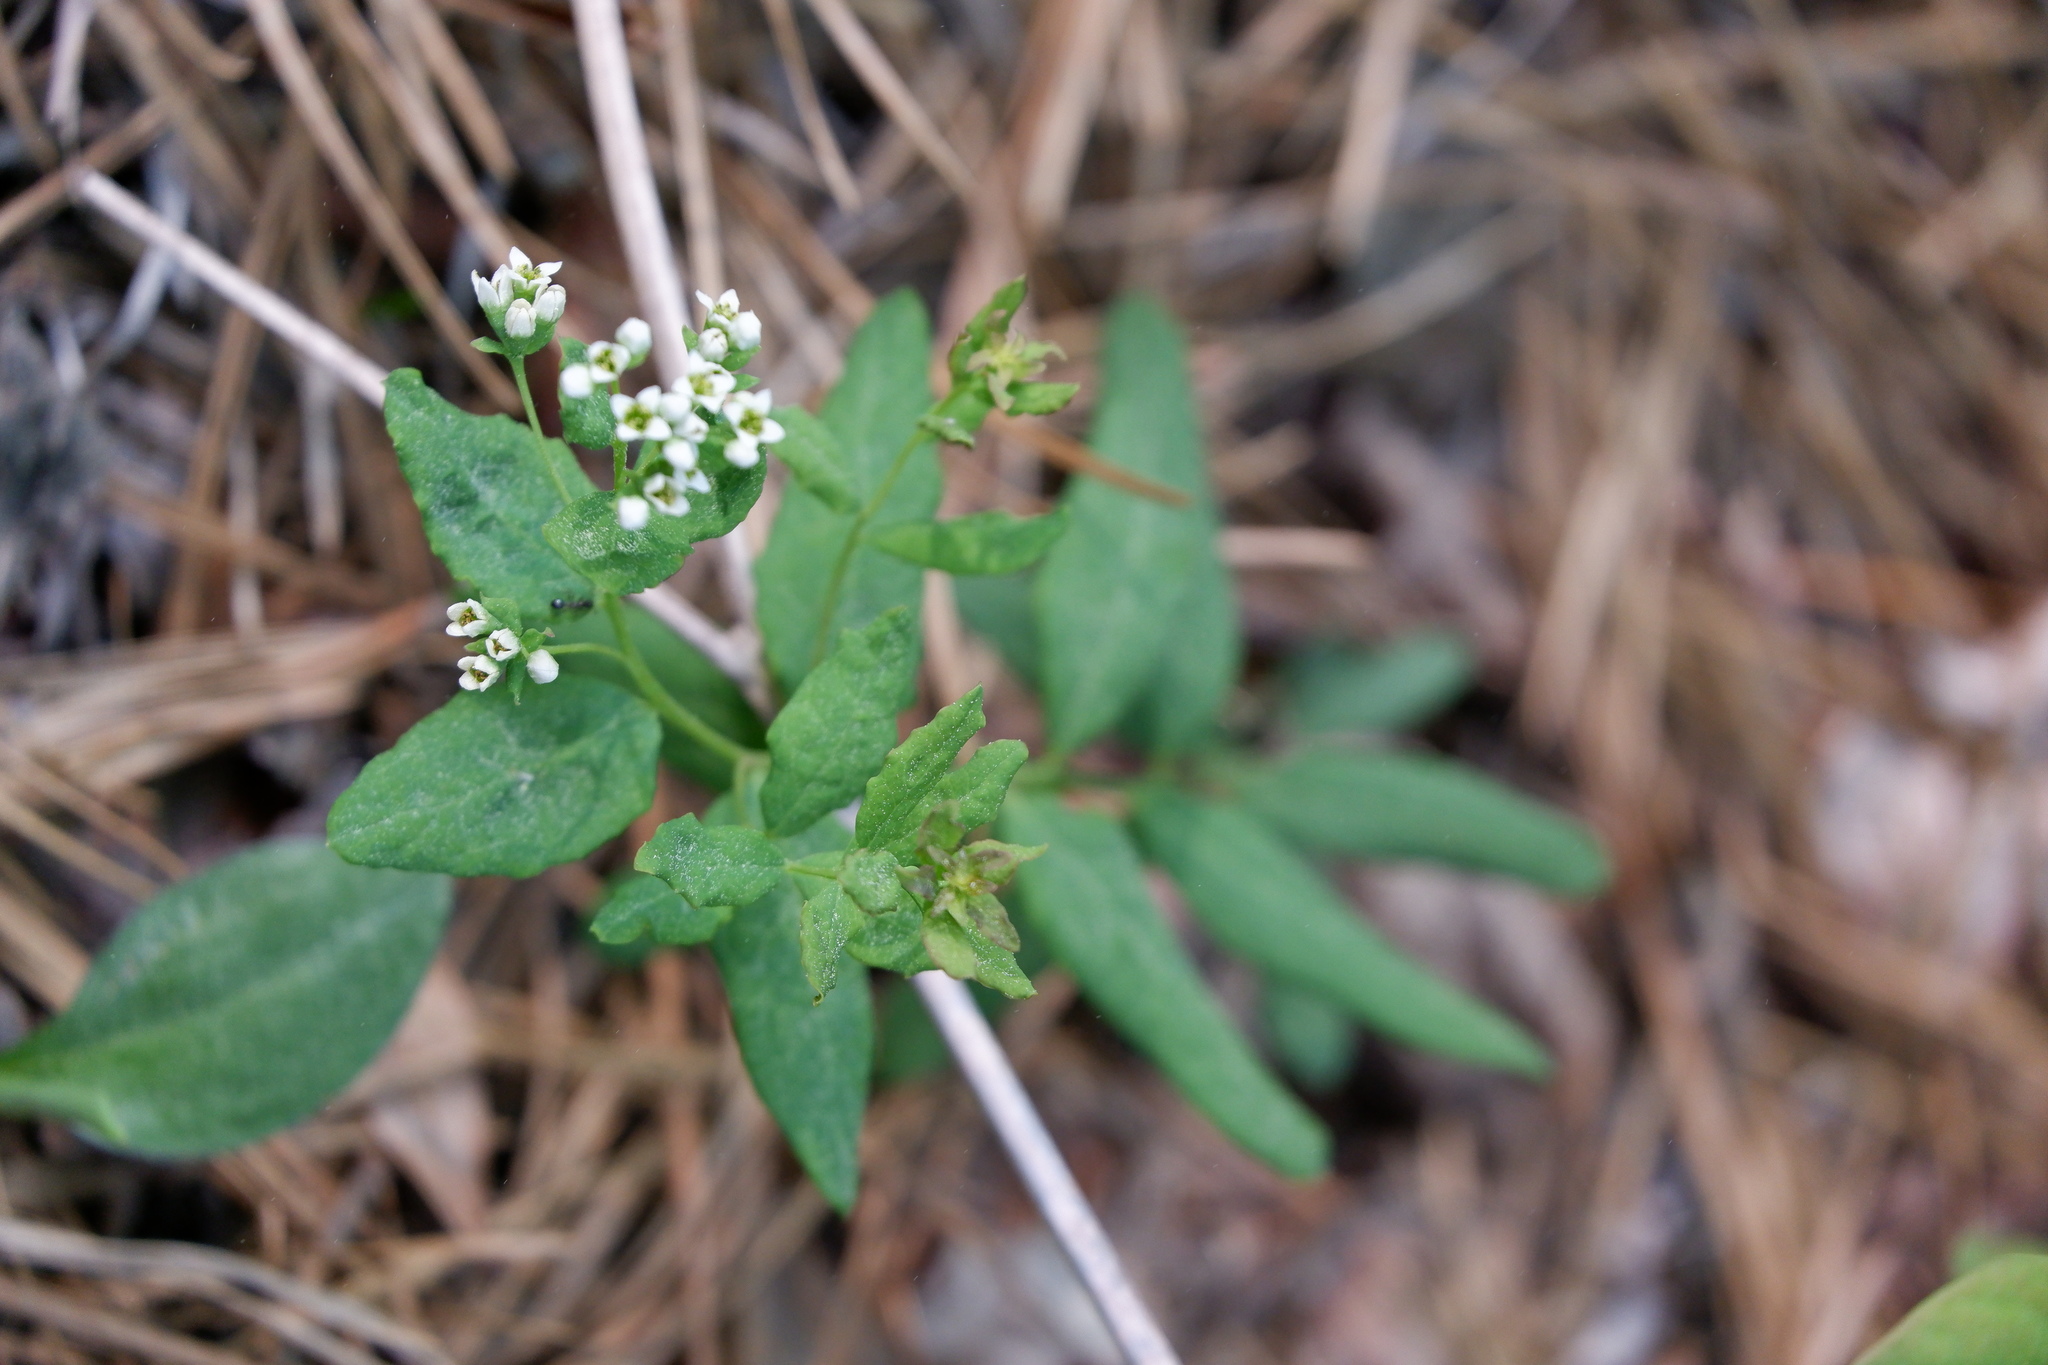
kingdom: Plantae
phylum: Tracheophyta
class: Magnoliopsida
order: Santalales
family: Comandraceae
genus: Comandra
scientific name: Comandra umbellata
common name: Bastard toadflax
